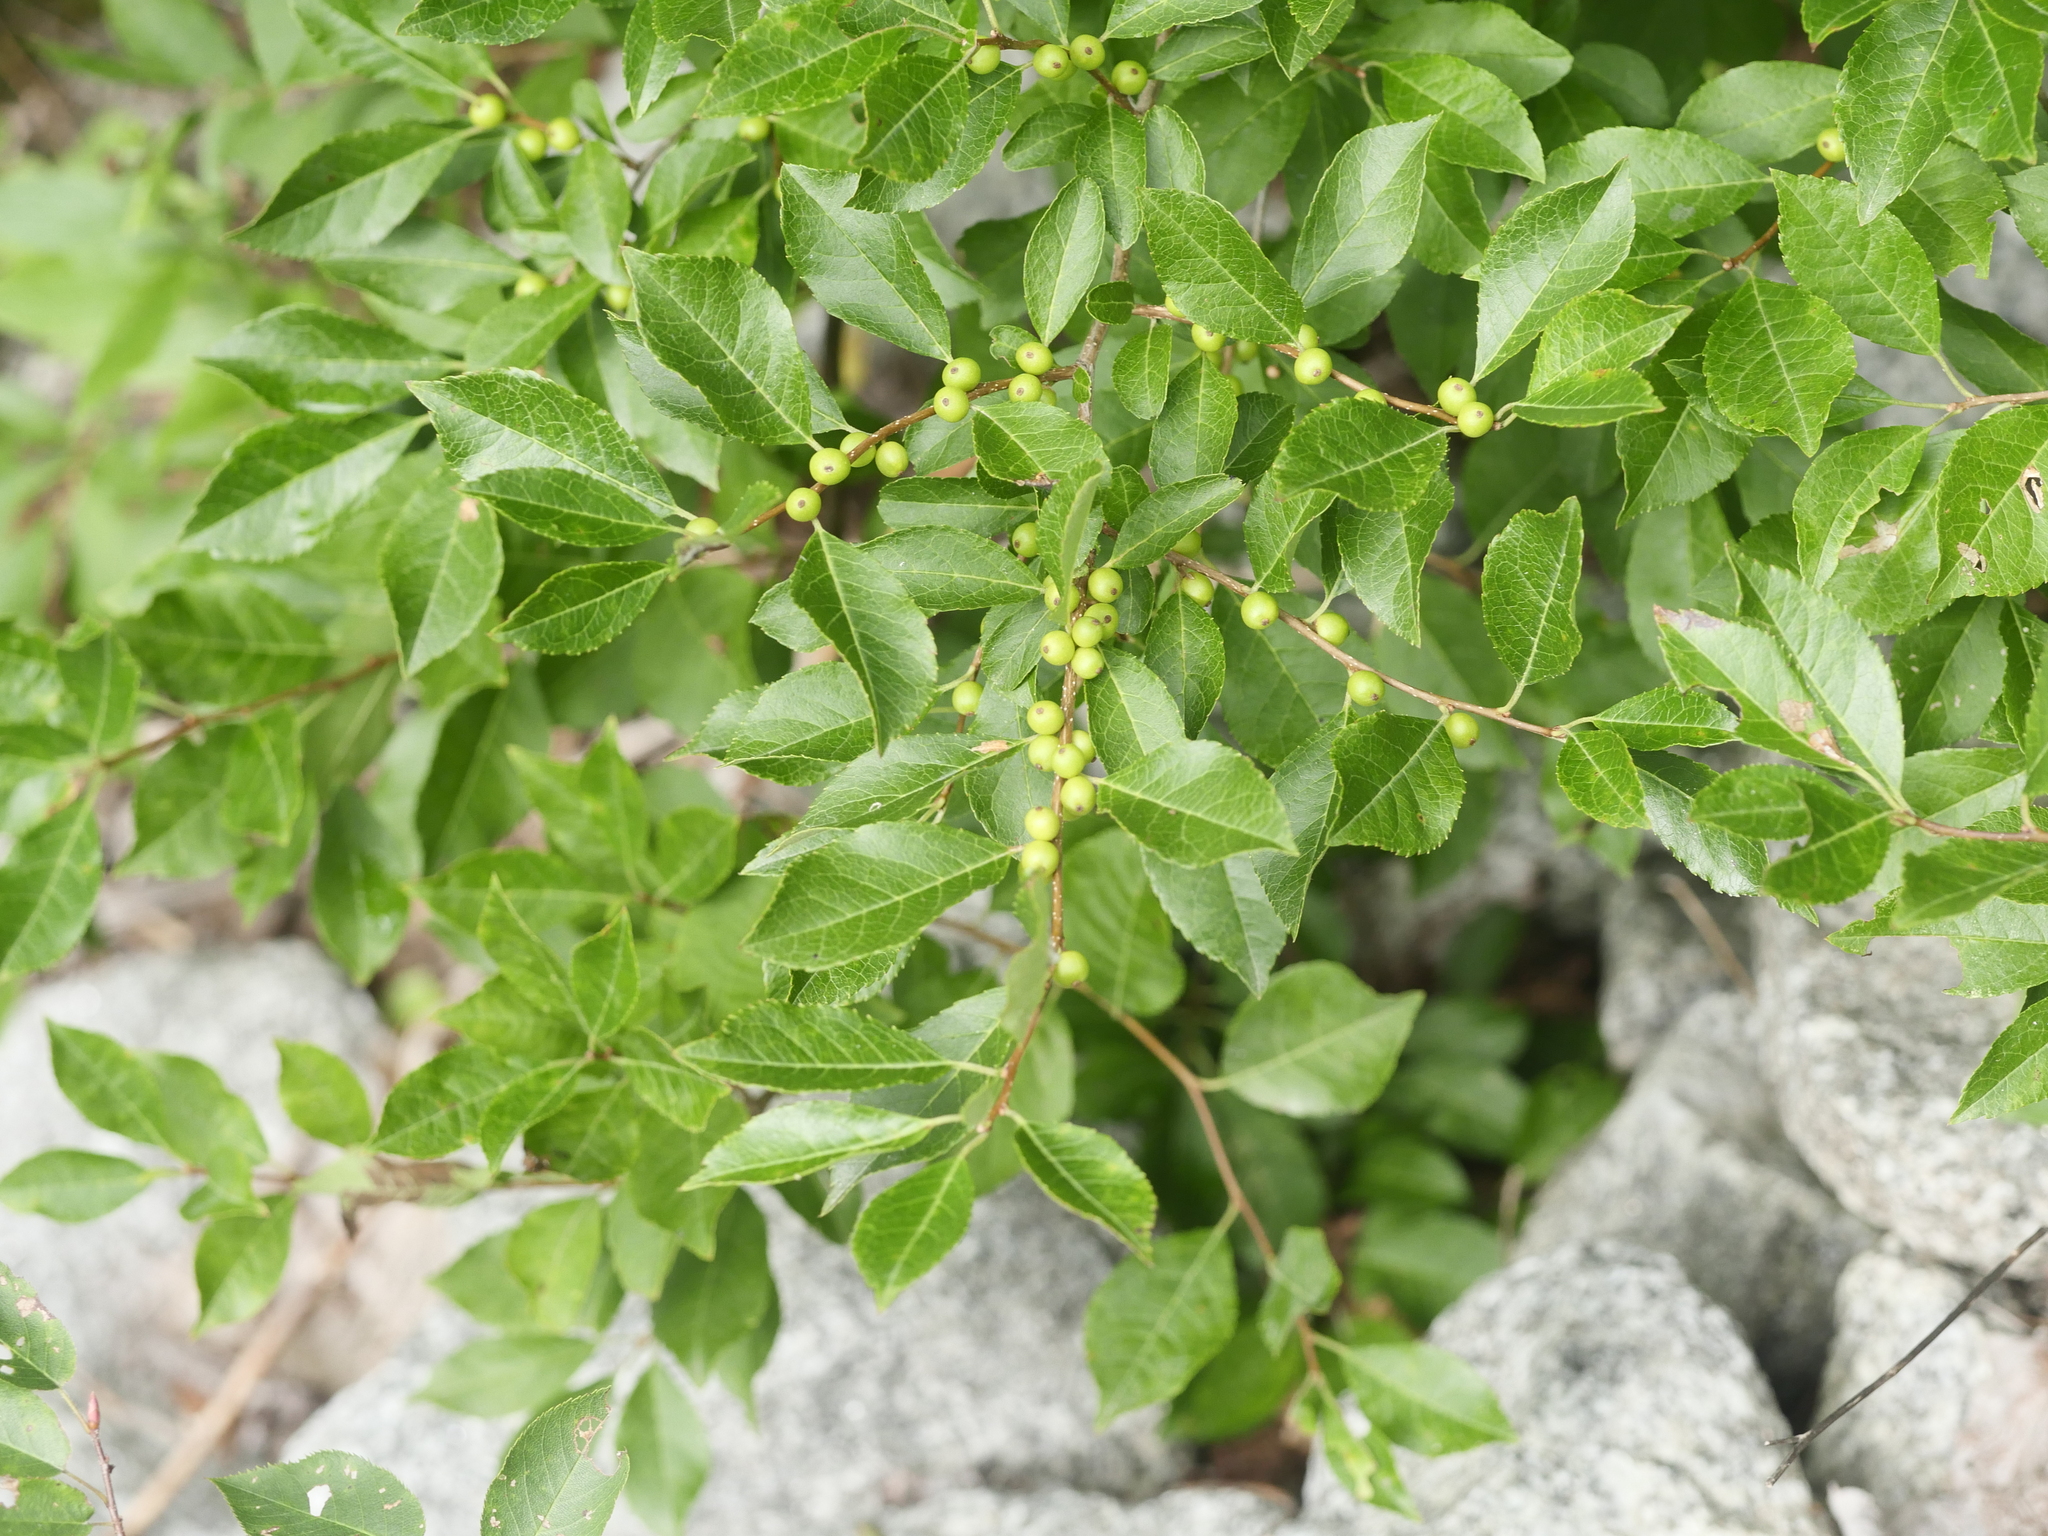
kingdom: Plantae
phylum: Tracheophyta
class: Magnoliopsida
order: Aquifoliales
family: Aquifoliaceae
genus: Ilex
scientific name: Ilex verticillata
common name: Virginia winterberry
